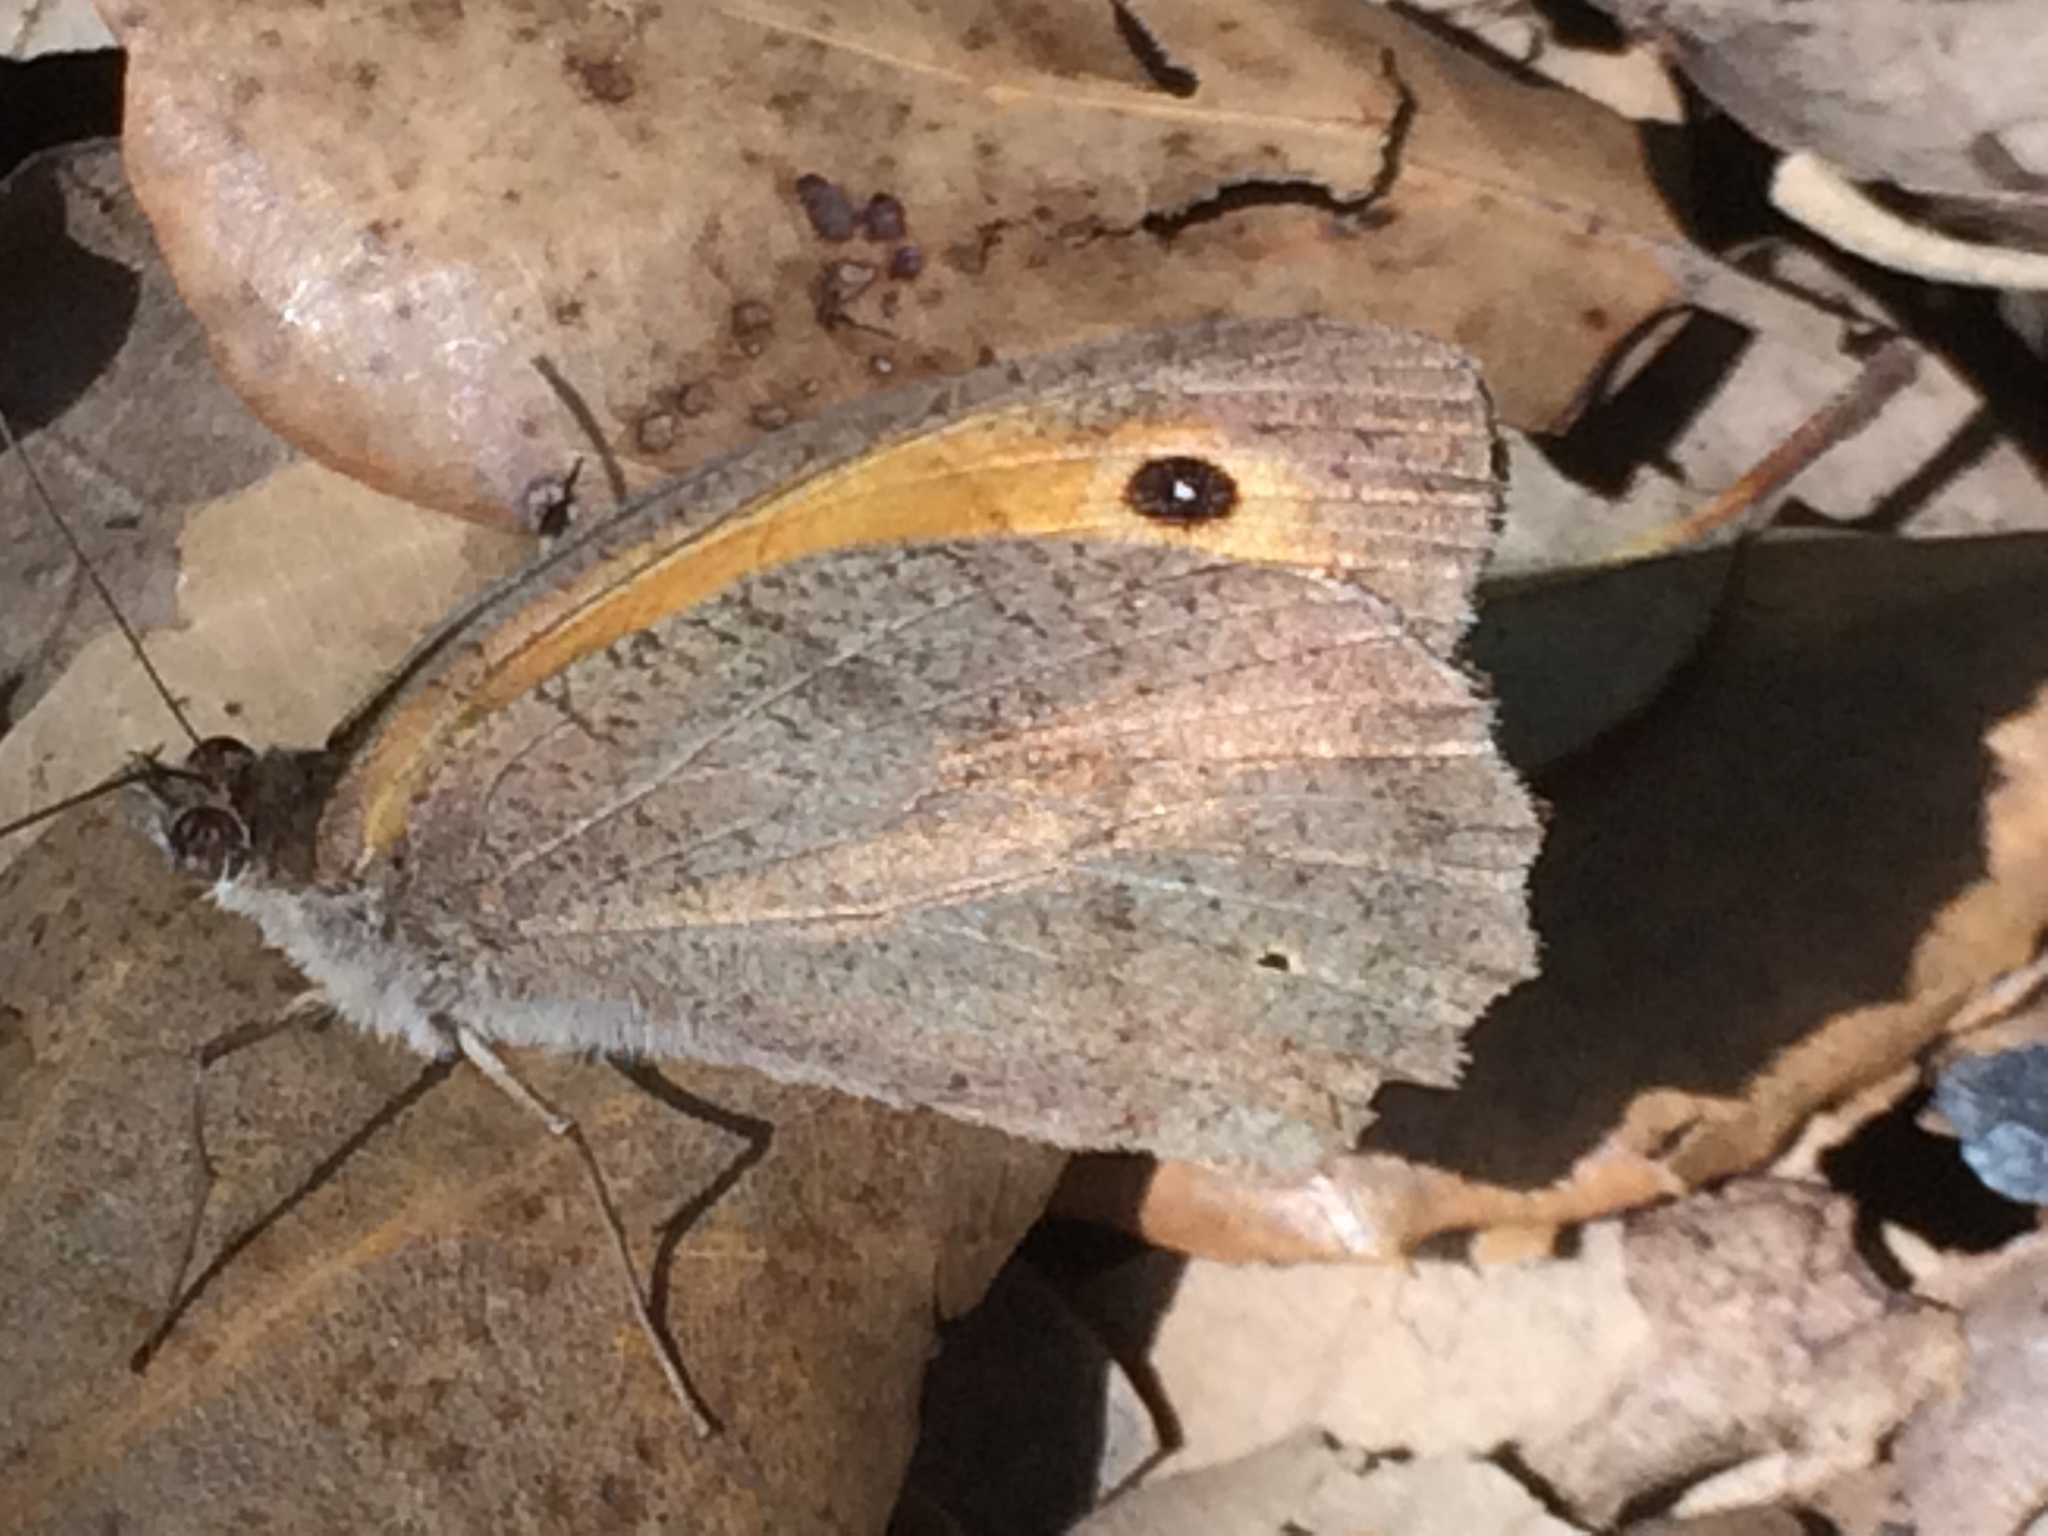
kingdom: Animalia
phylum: Arthropoda
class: Insecta
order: Lepidoptera
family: Nymphalidae
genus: Maniola
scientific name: Maniola jurtina
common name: Meadow brown
